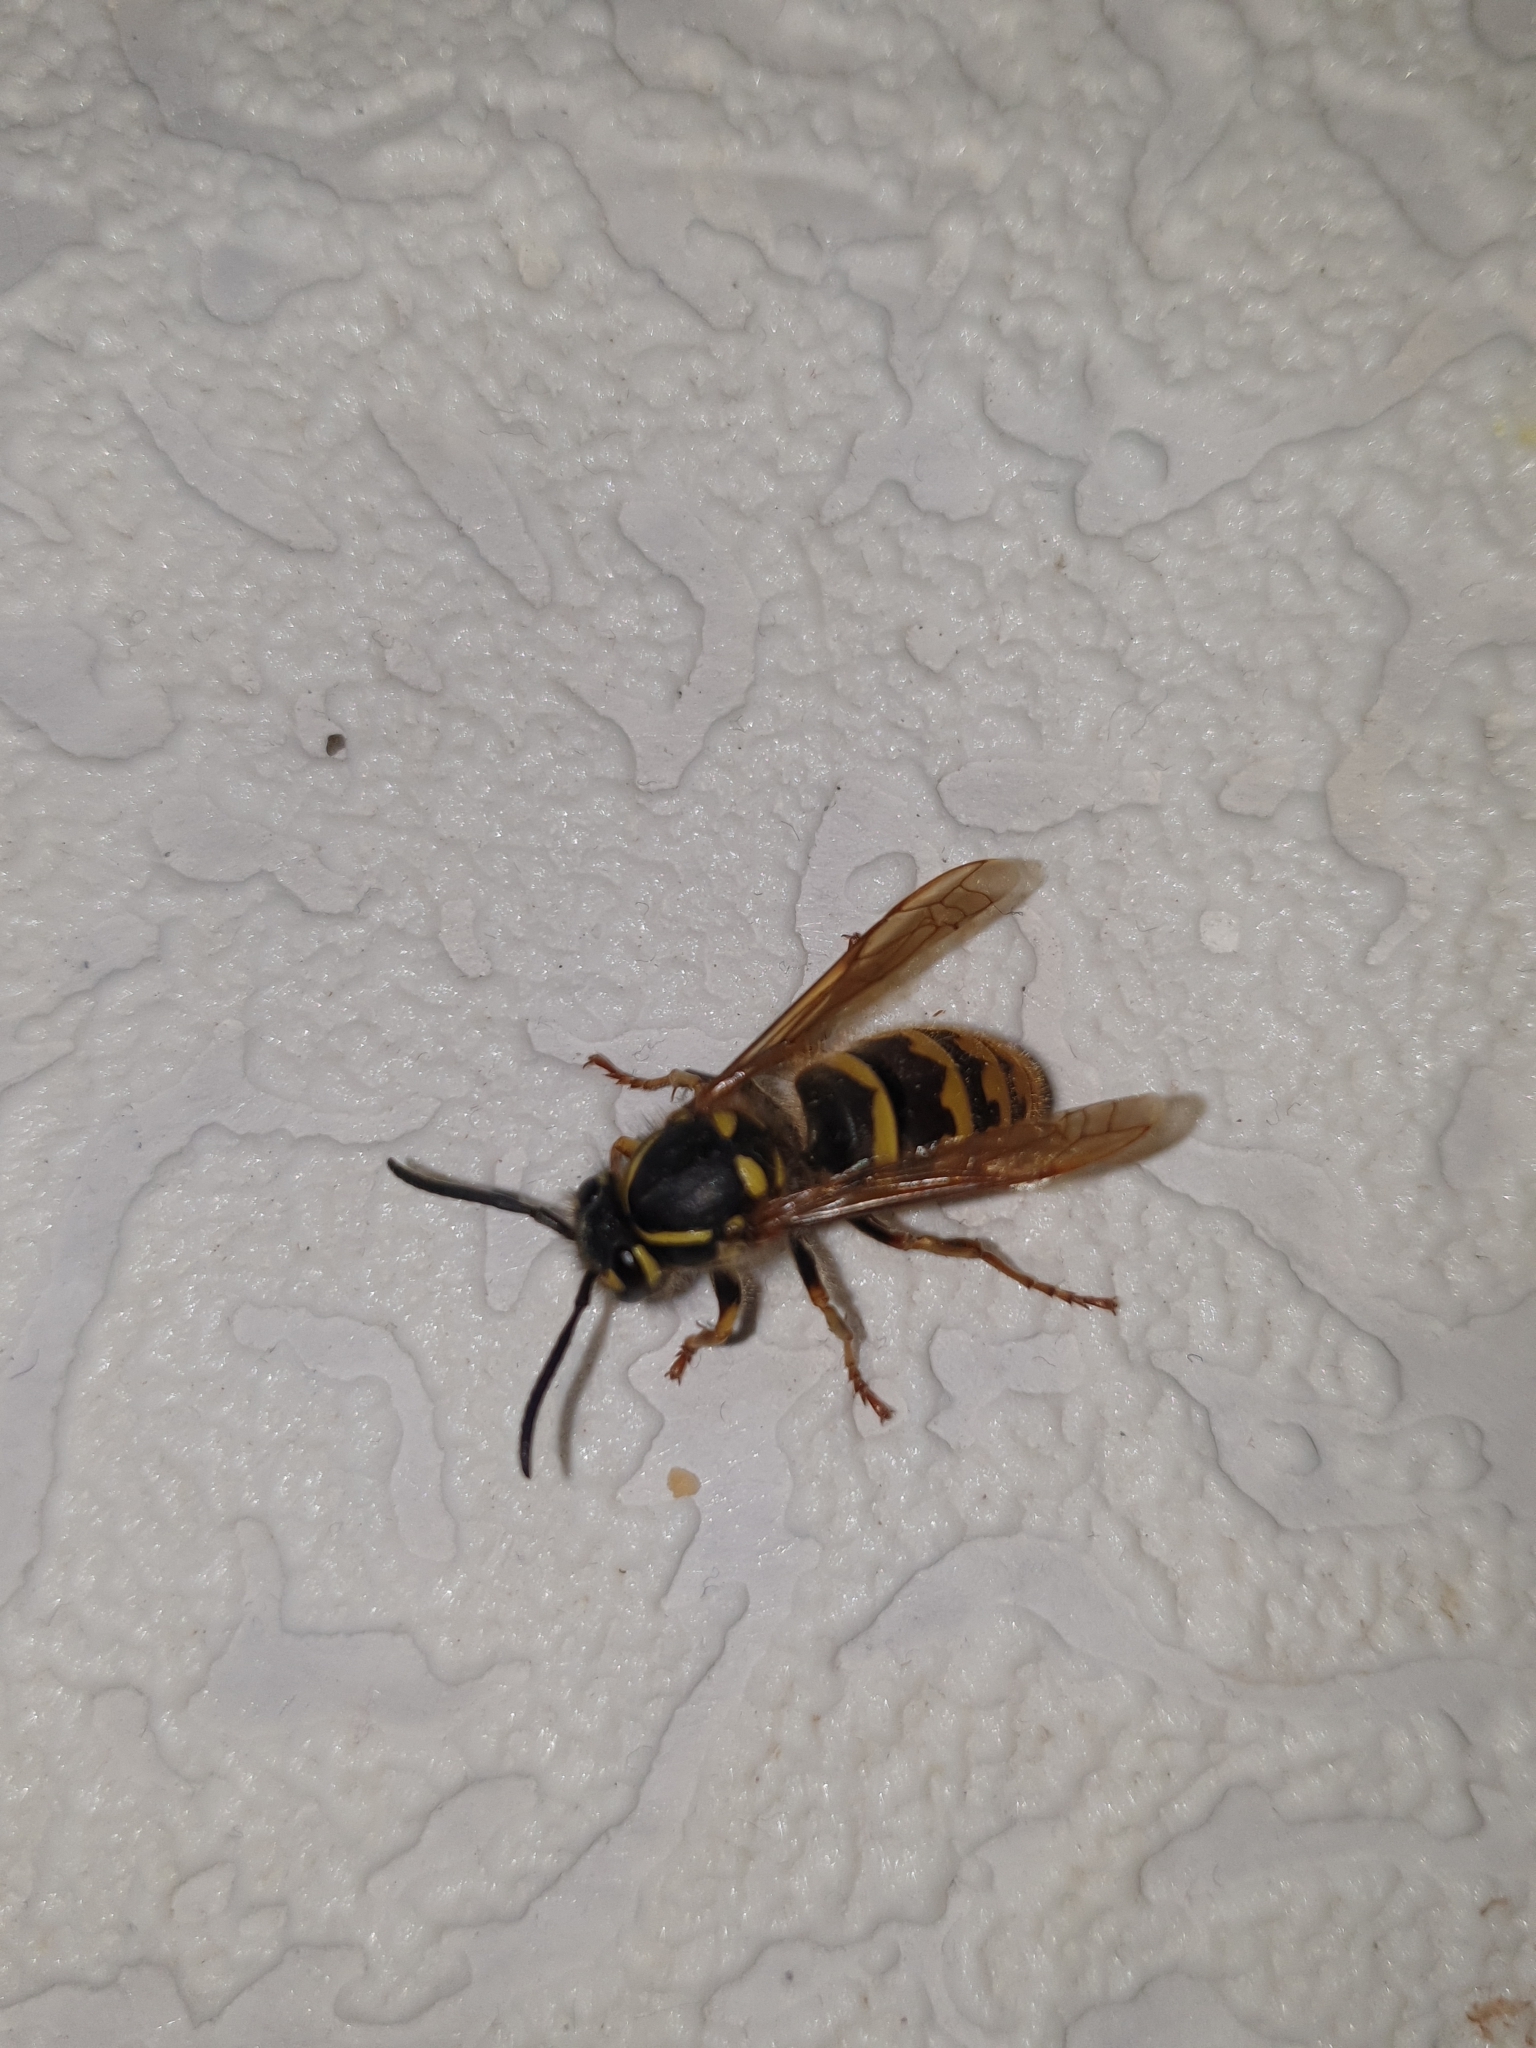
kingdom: Animalia
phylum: Arthropoda
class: Insecta
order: Hymenoptera
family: Vespidae
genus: Vespula
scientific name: Vespula vulgaris
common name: Common wasp
